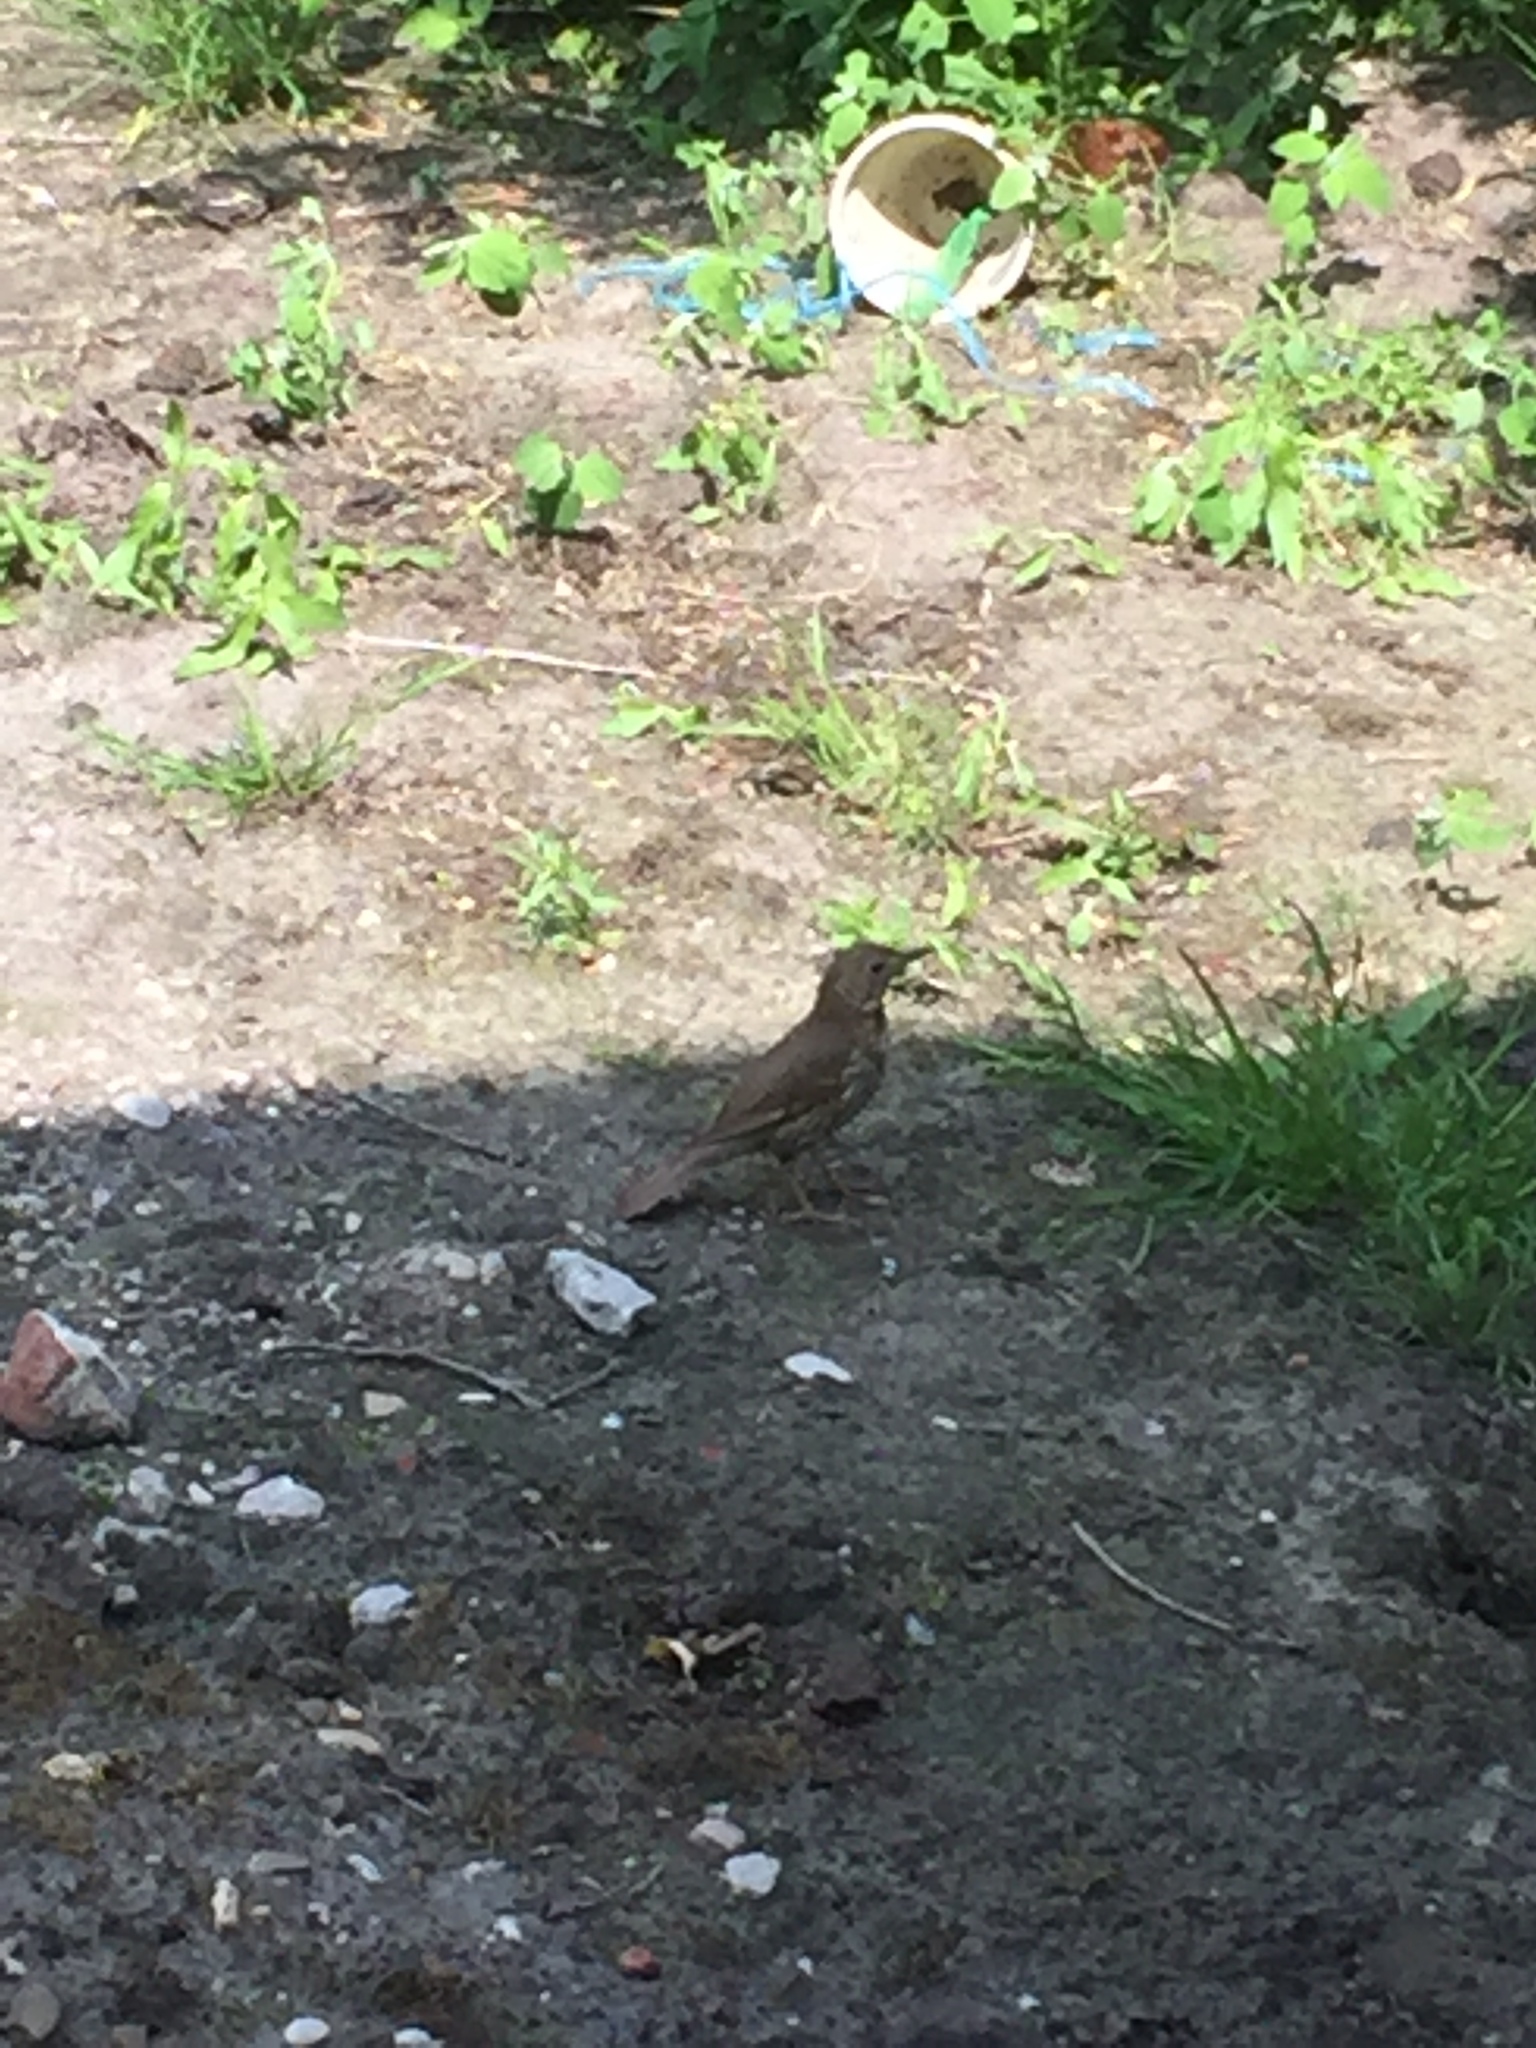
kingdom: Animalia
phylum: Chordata
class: Aves
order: Passeriformes
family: Turdidae
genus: Turdus
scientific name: Turdus philomelos
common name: Song thrush
